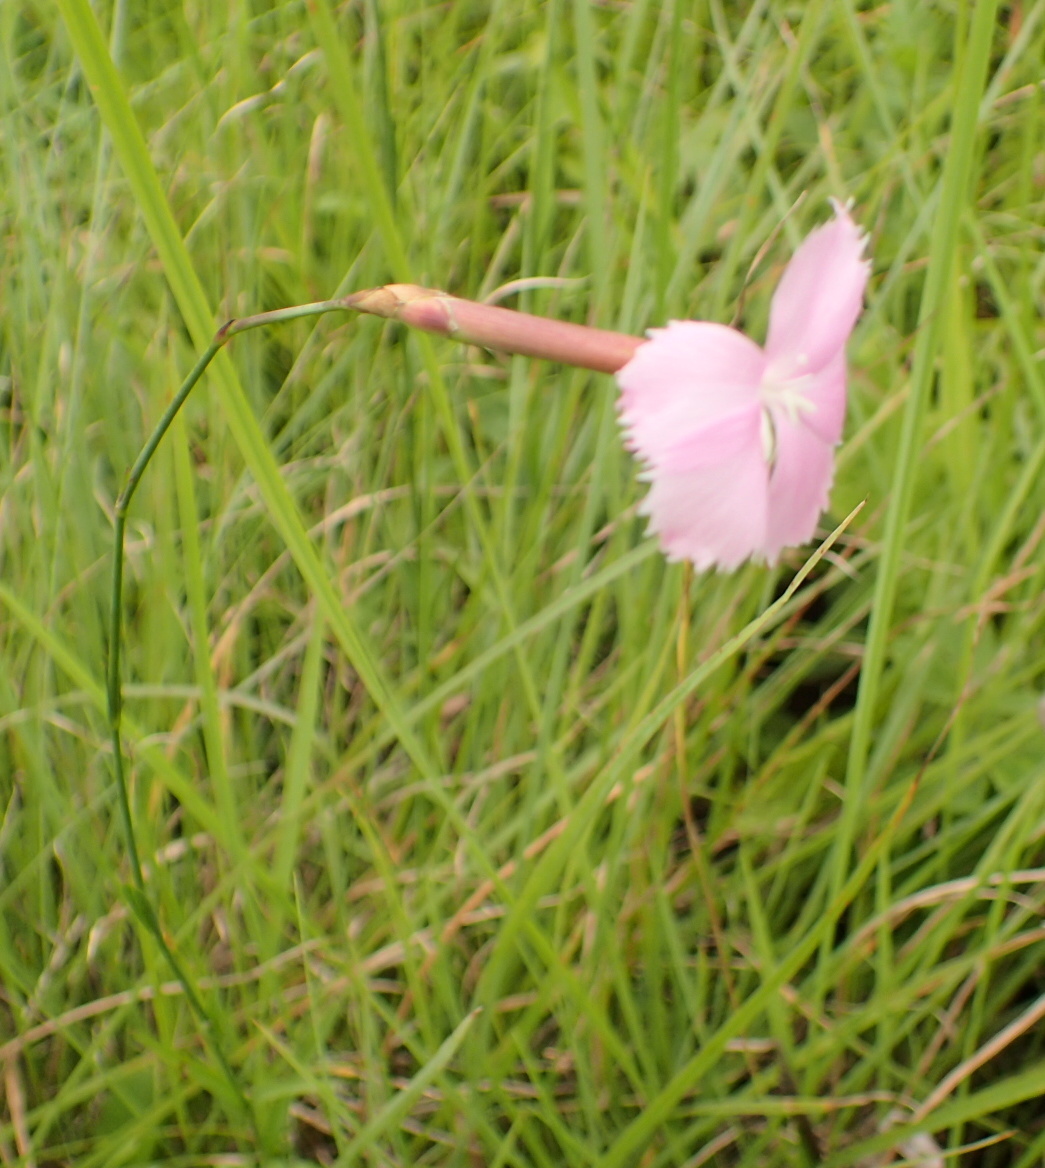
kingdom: Plantae
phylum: Tracheophyta
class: Magnoliopsida
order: Caryophyllales
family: Caryophyllaceae
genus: Dianthus
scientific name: Dianthus zeyheri
